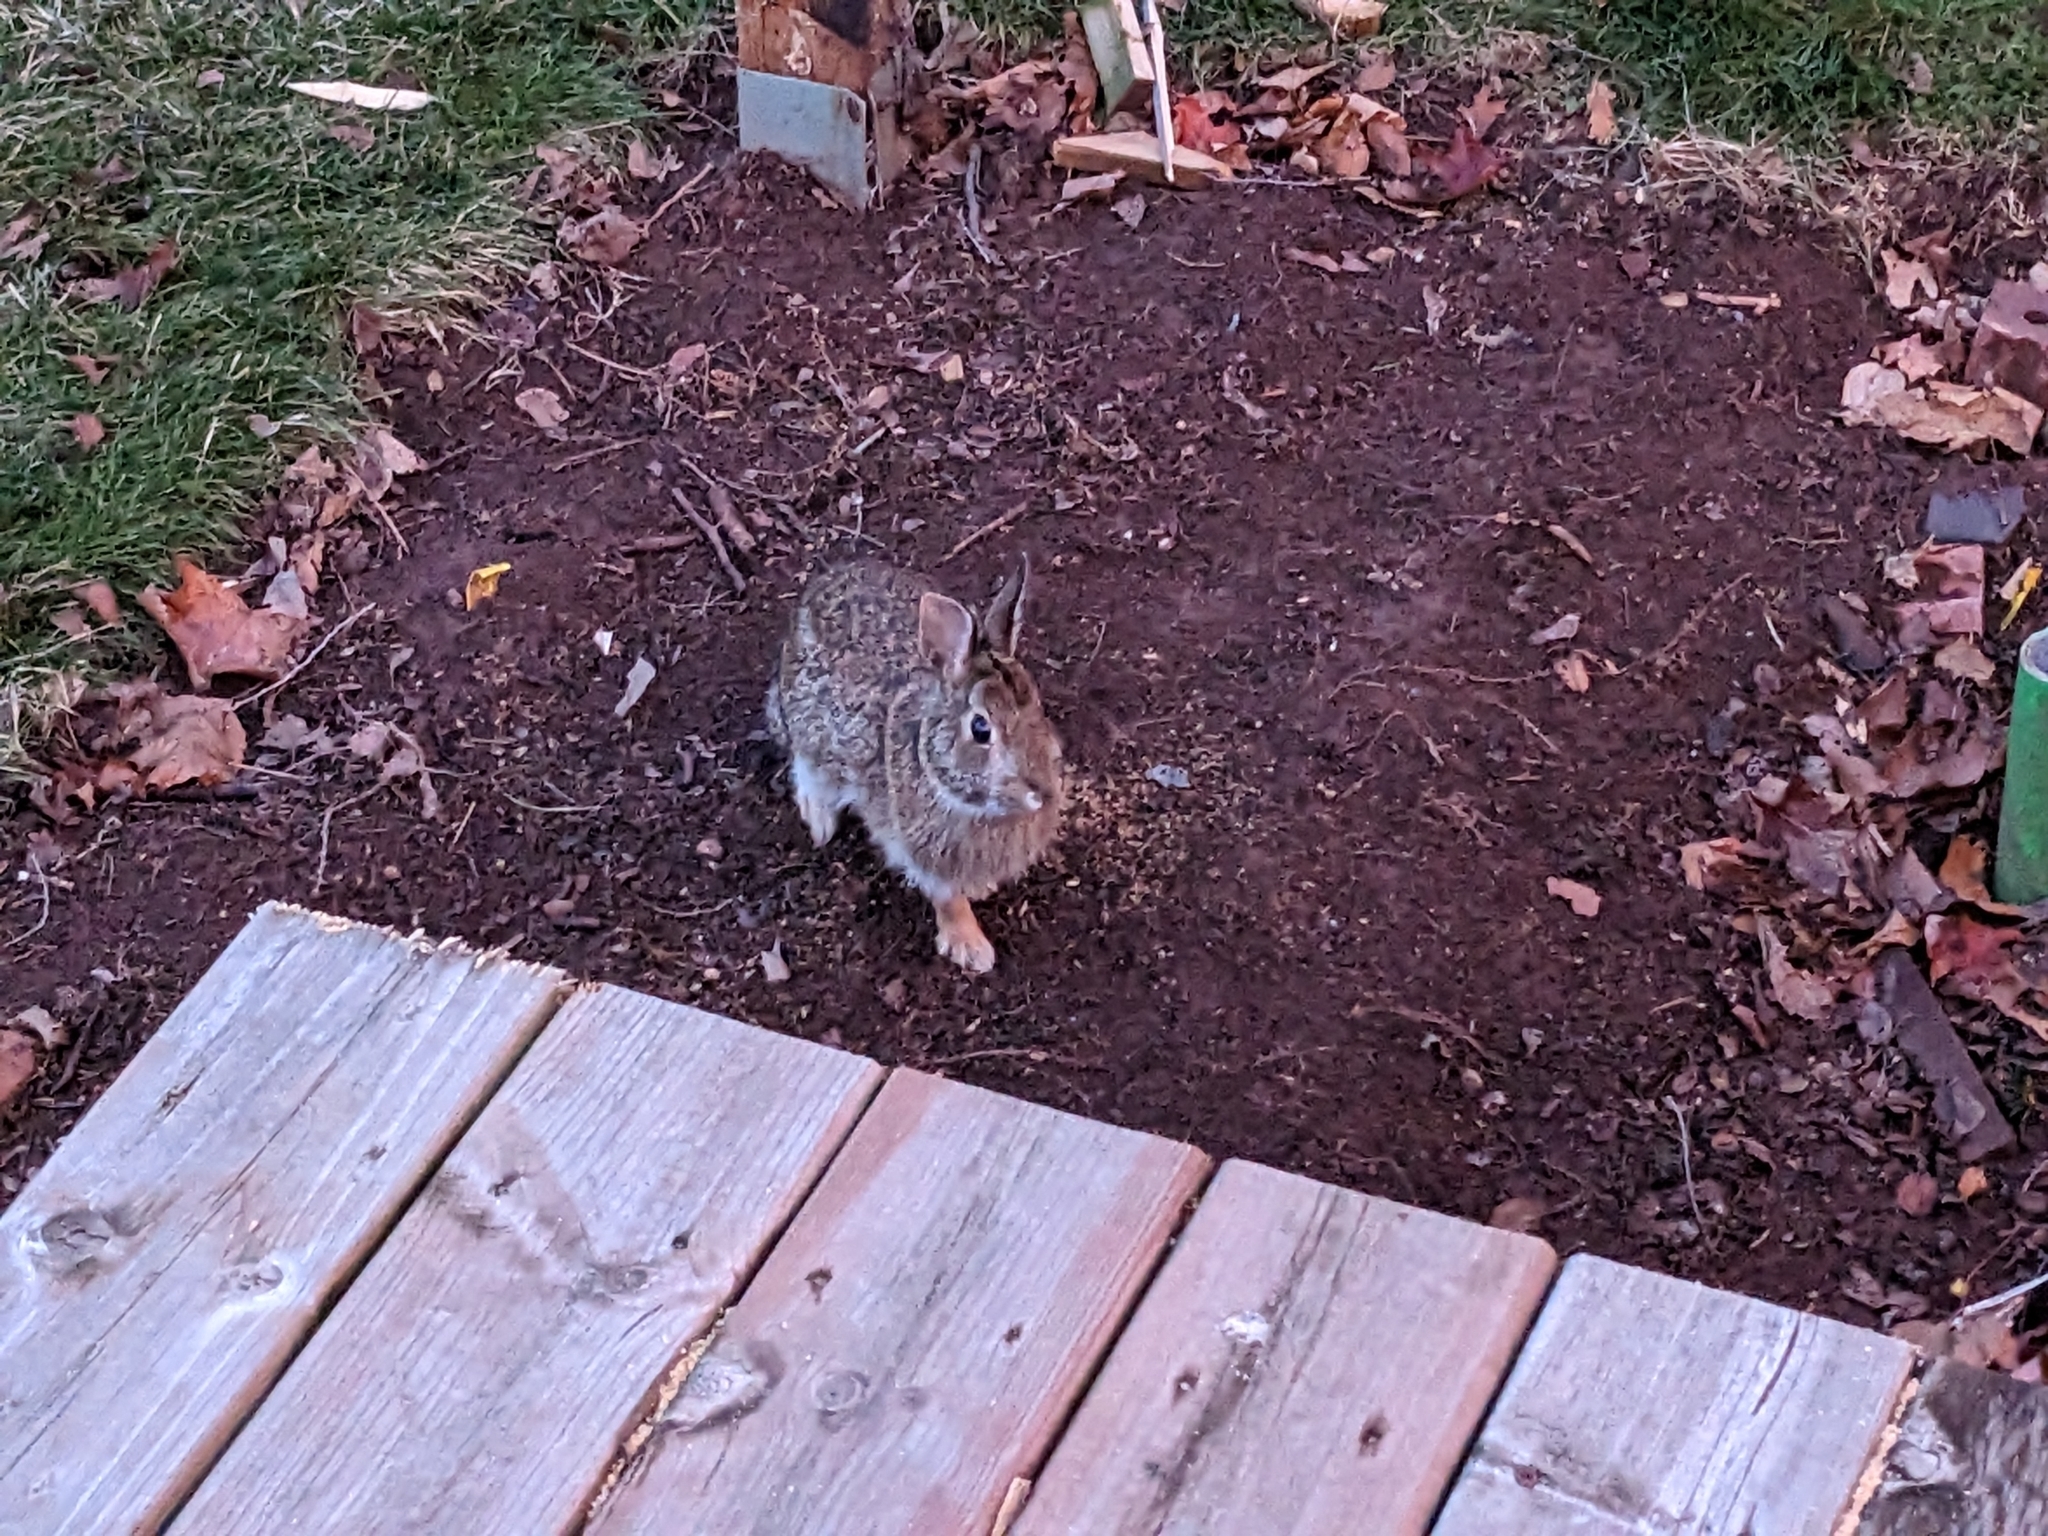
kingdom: Animalia
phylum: Chordata
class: Mammalia
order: Lagomorpha
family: Leporidae
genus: Sylvilagus
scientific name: Sylvilagus floridanus
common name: Eastern cottontail
